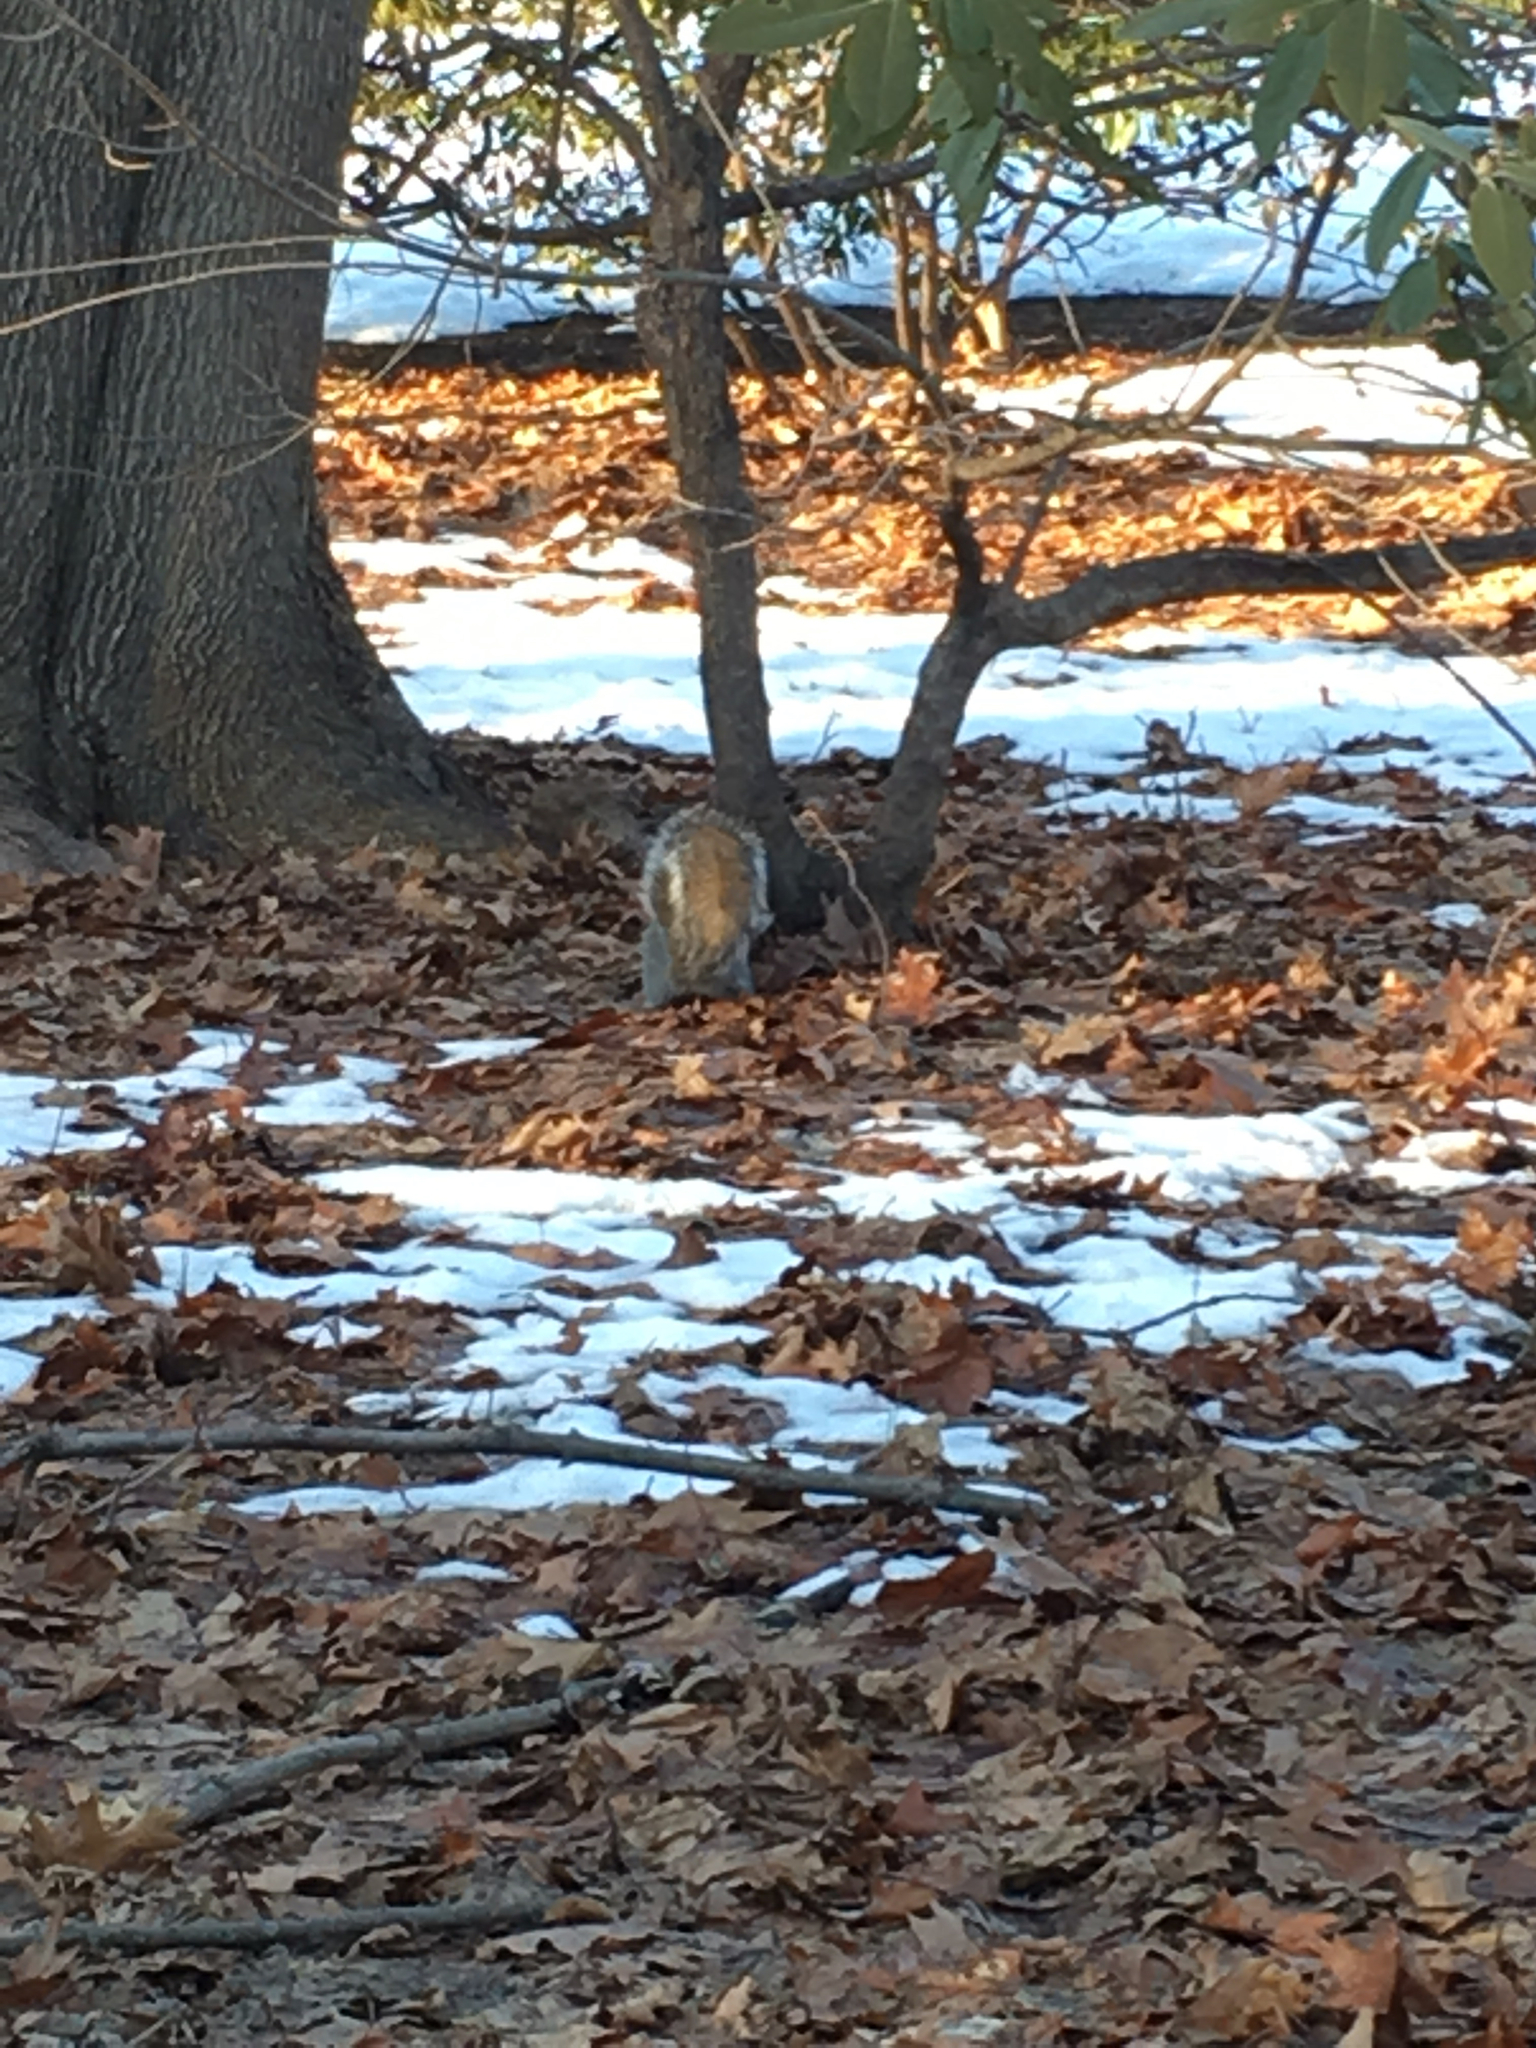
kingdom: Animalia
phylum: Chordata
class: Mammalia
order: Rodentia
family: Sciuridae
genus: Sciurus
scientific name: Sciurus carolinensis
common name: Eastern gray squirrel
